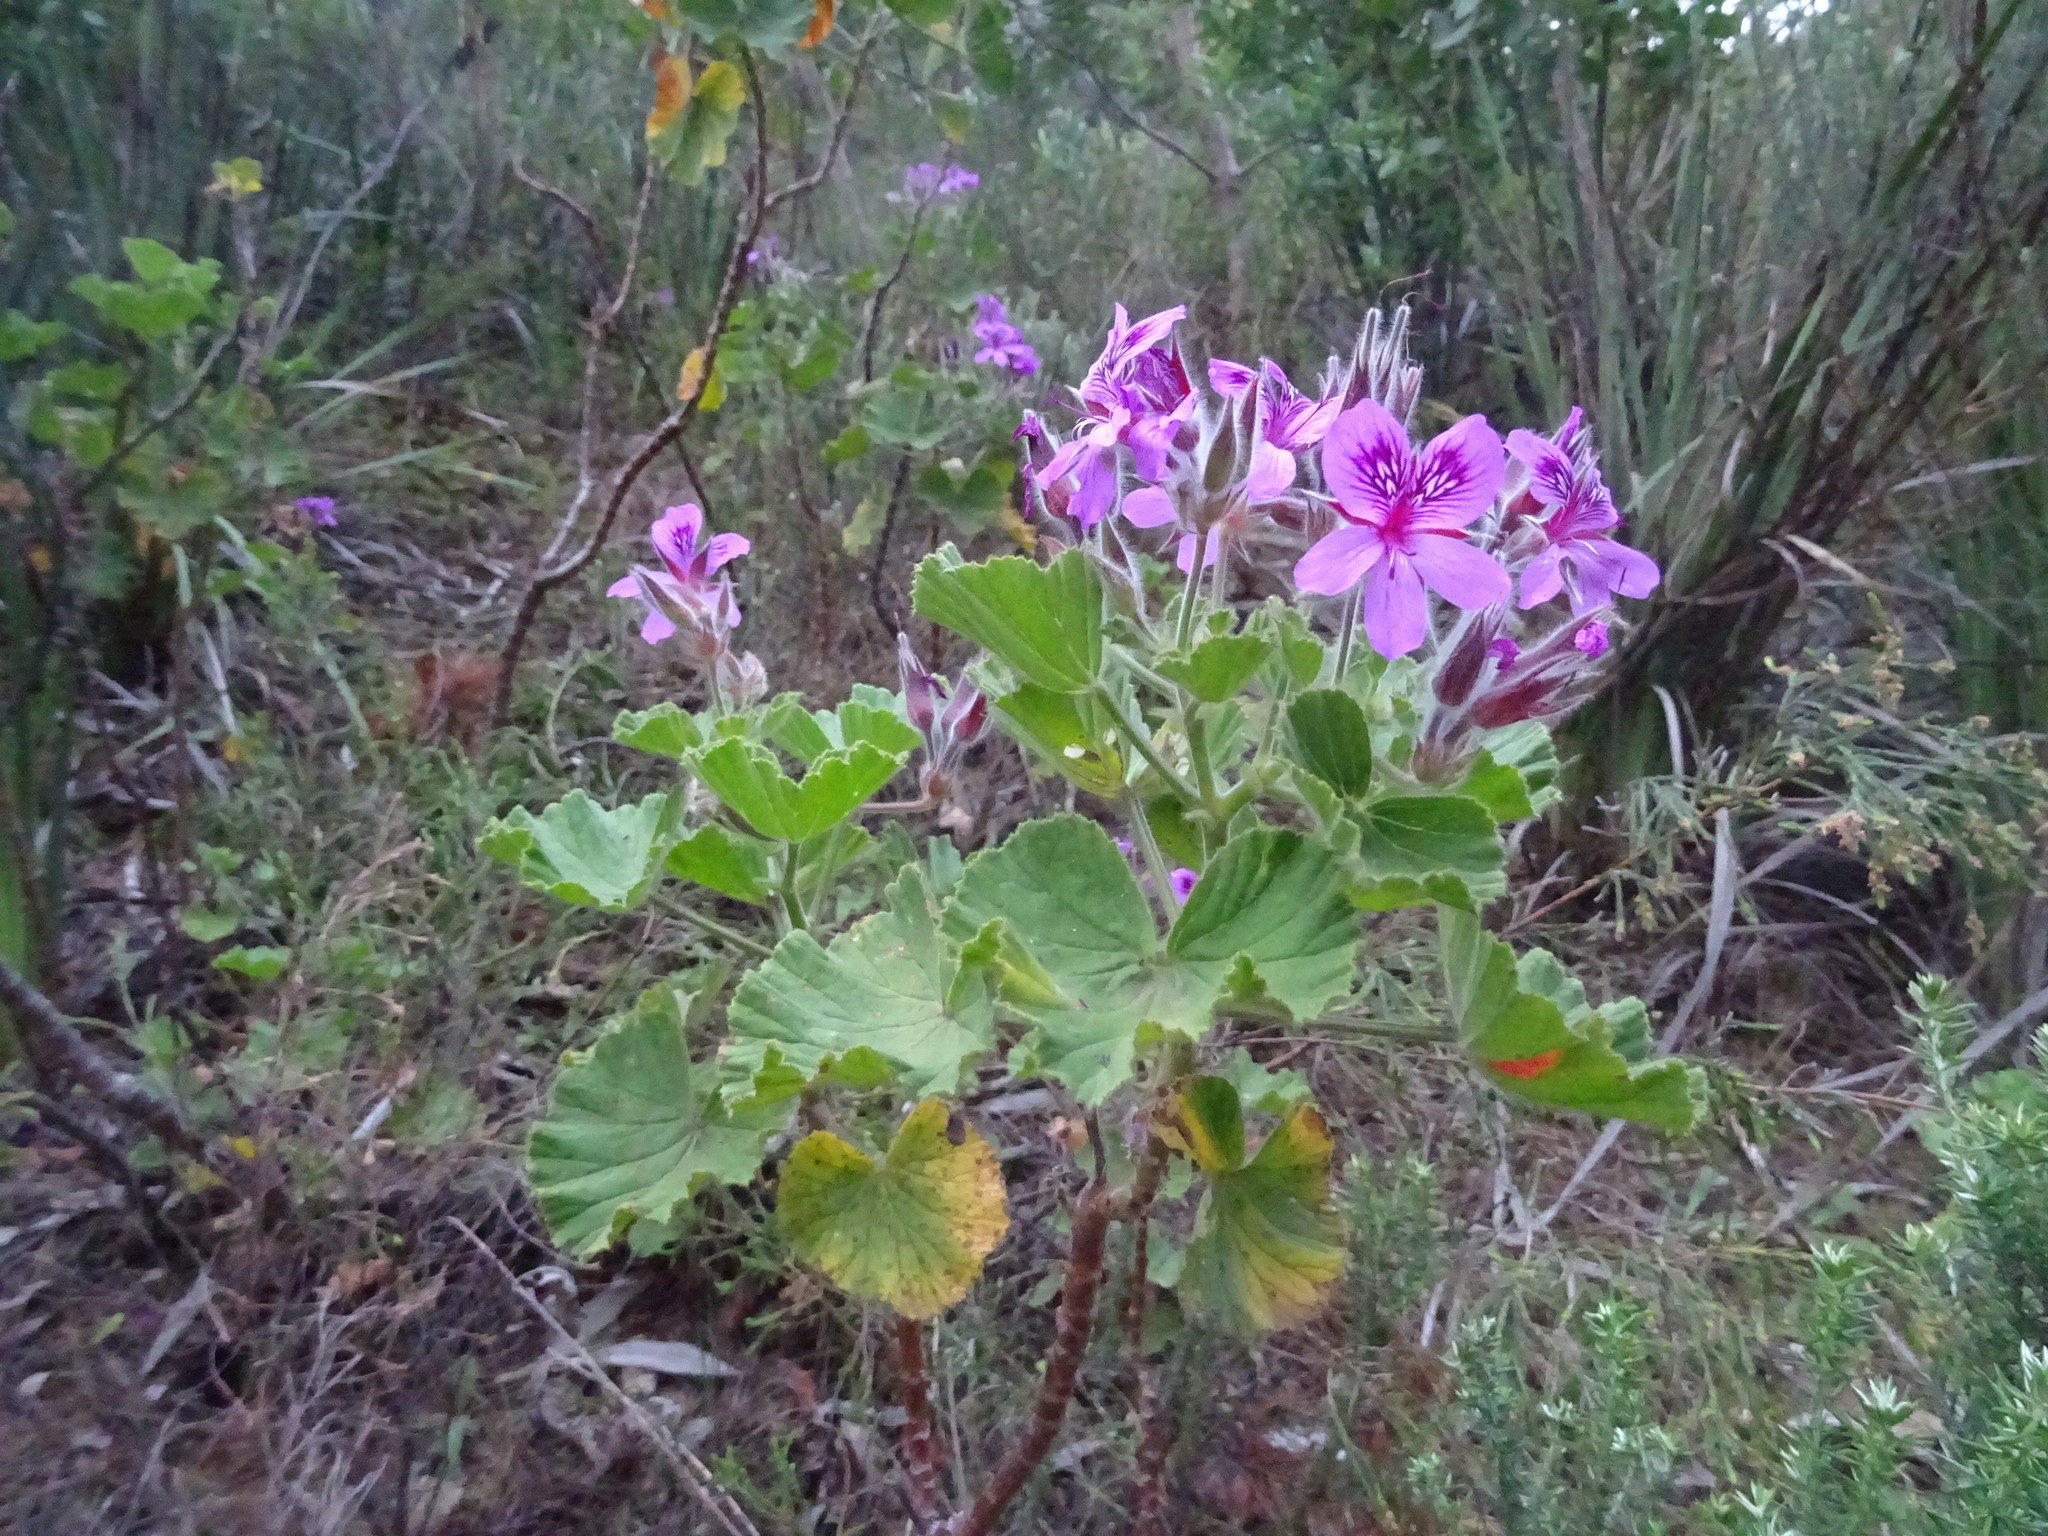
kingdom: Plantae
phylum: Tracheophyta
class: Magnoliopsida
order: Geraniales
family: Geraniaceae
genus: Pelargonium
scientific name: Pelargonium cucullatum
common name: Tree pelargonium
